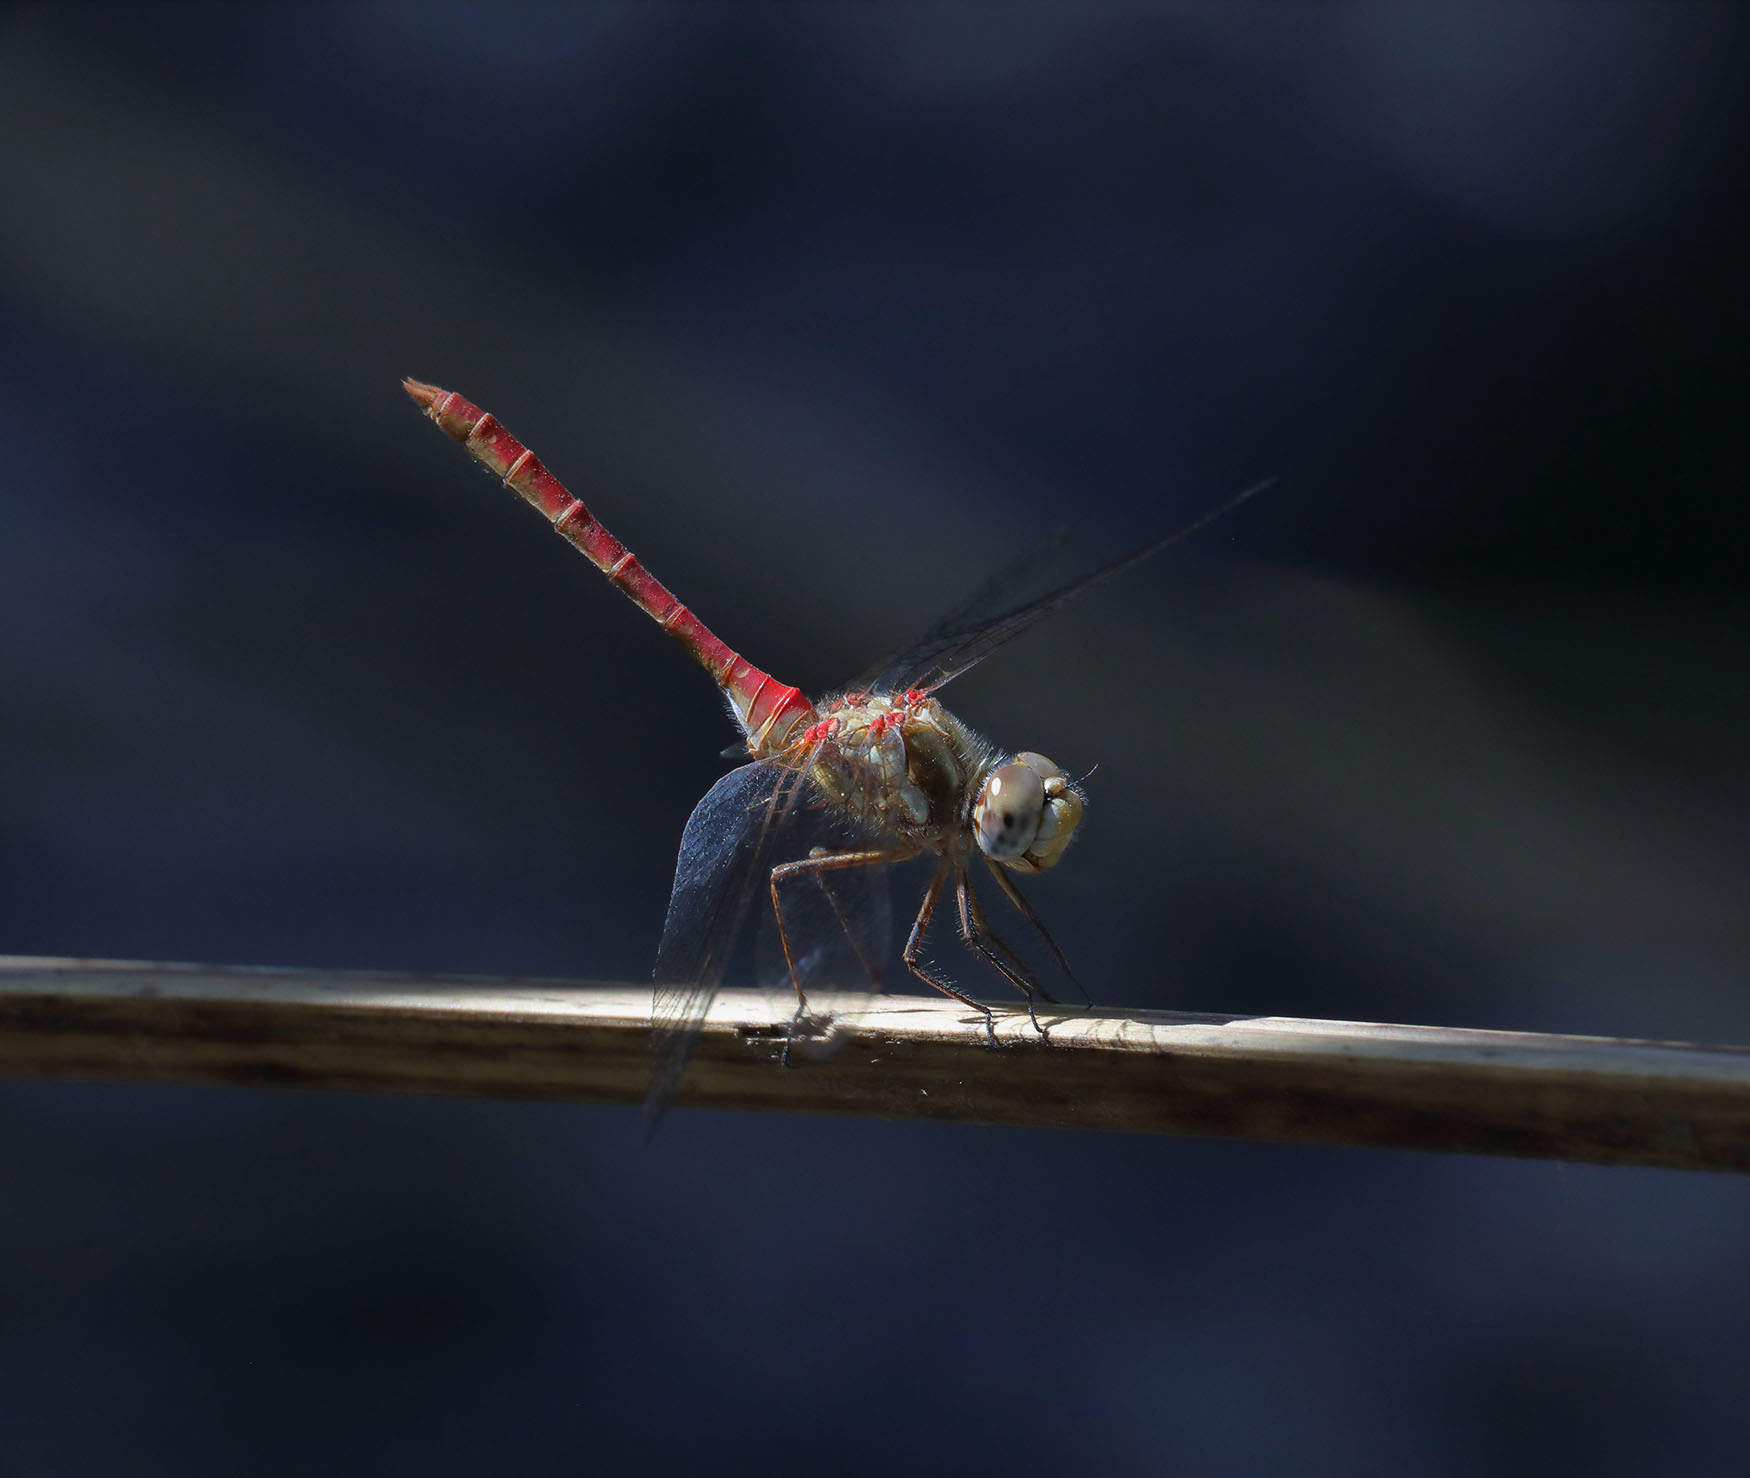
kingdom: Animalia
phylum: Arthropoda
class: Insecta
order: Odonata
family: Libellulidae
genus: Sympetrum
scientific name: Sympetrum pallipes
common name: Striped meadowhawk
